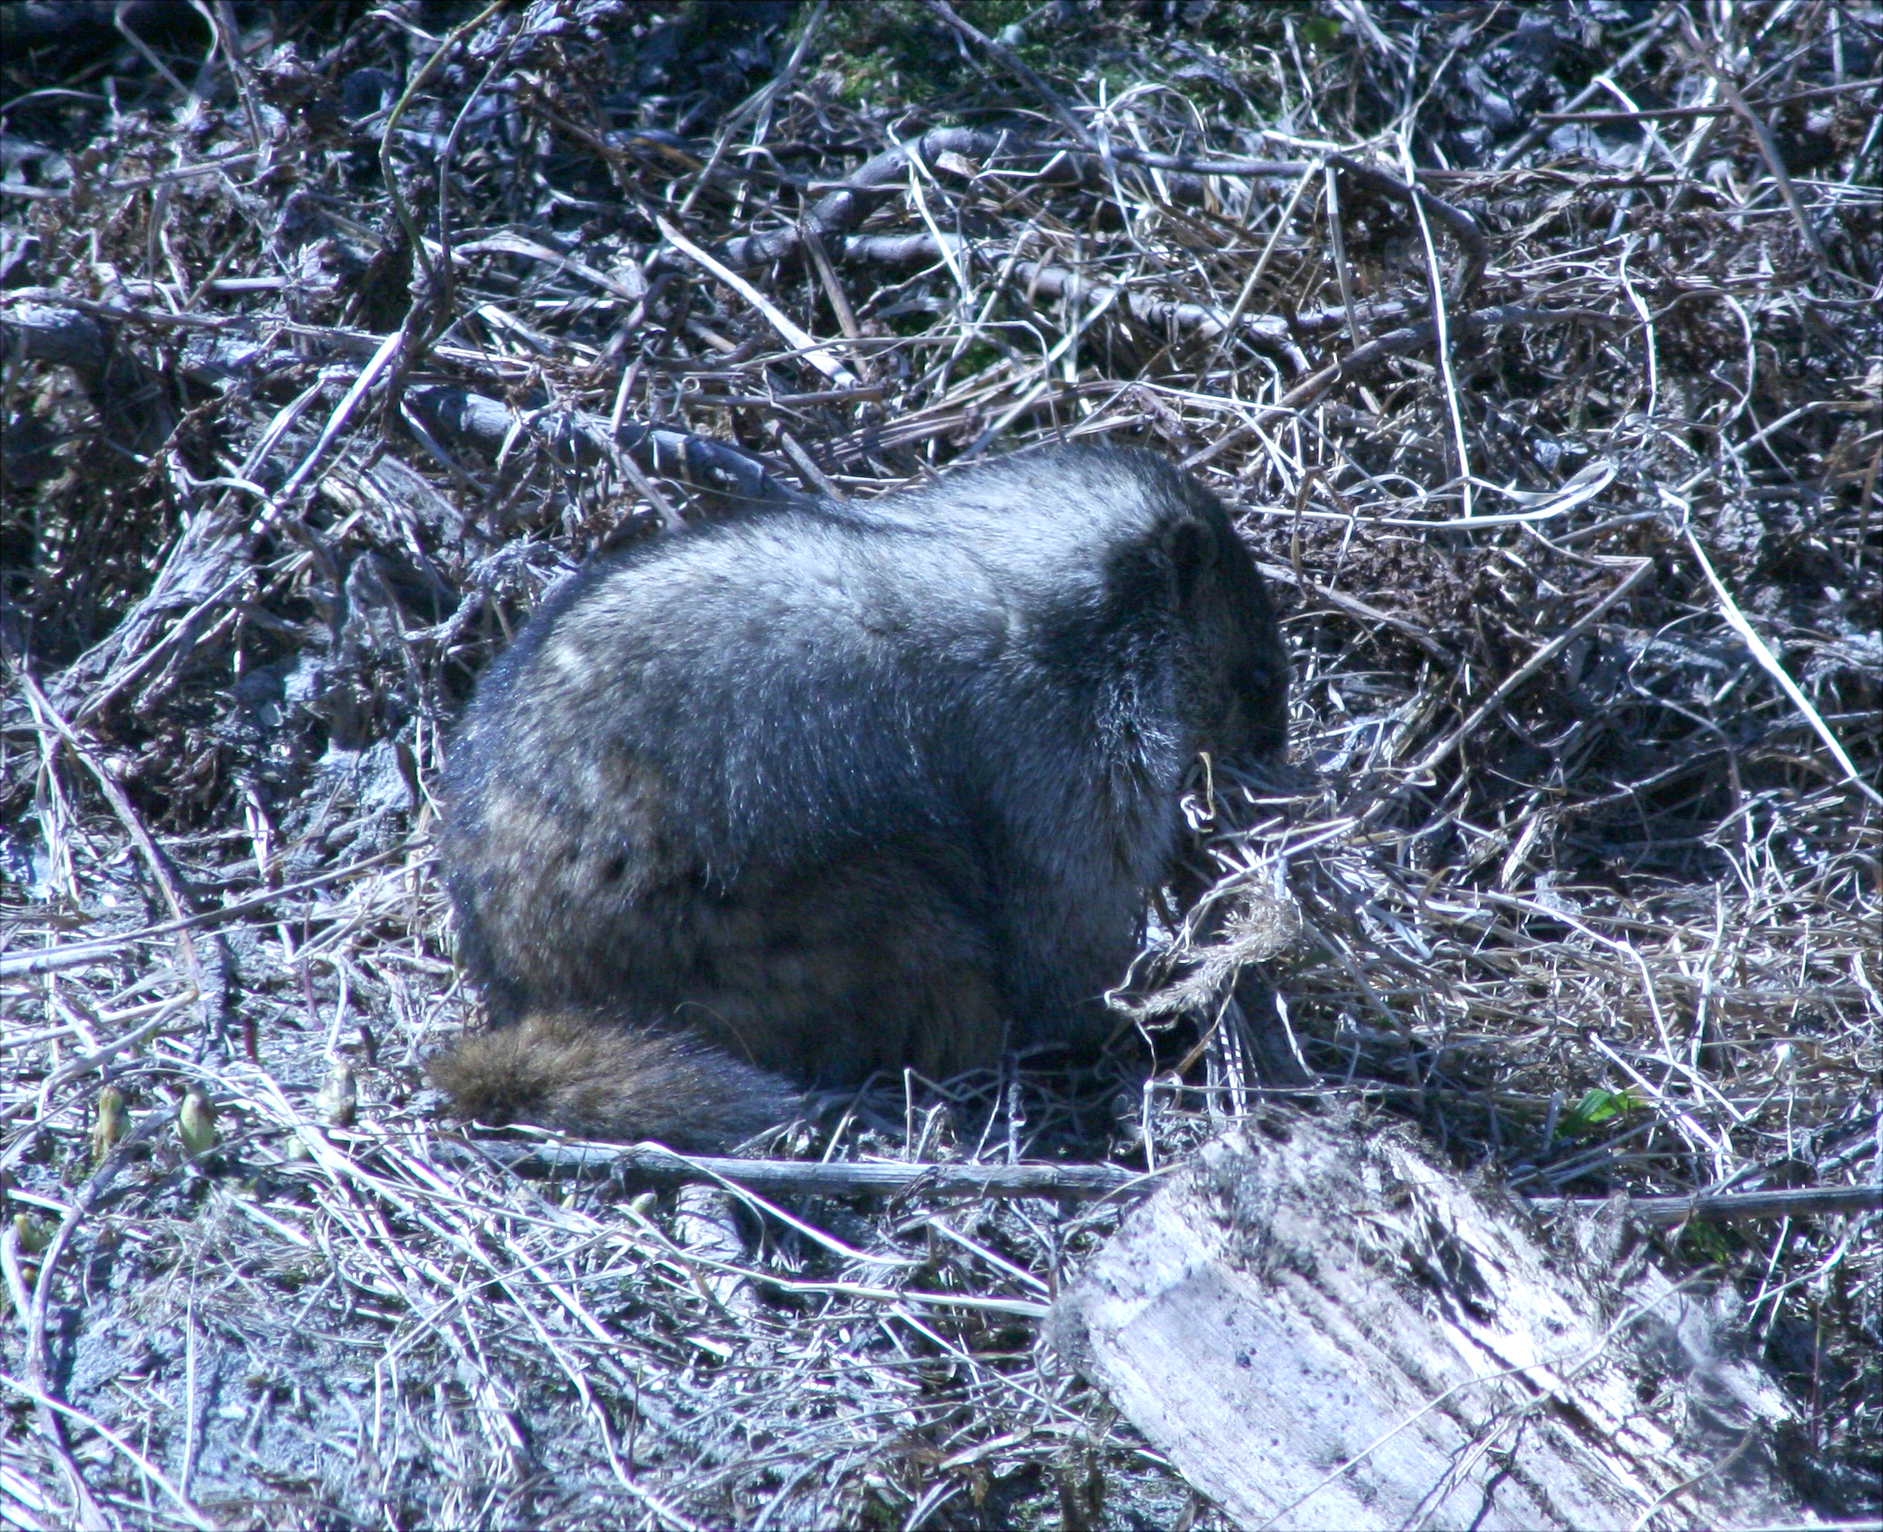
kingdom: Animalia
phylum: Chordata
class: Mammalia
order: Rodentia
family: Sciuridae
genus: Marmota
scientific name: Marmota caligata
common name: Hoary marmot
